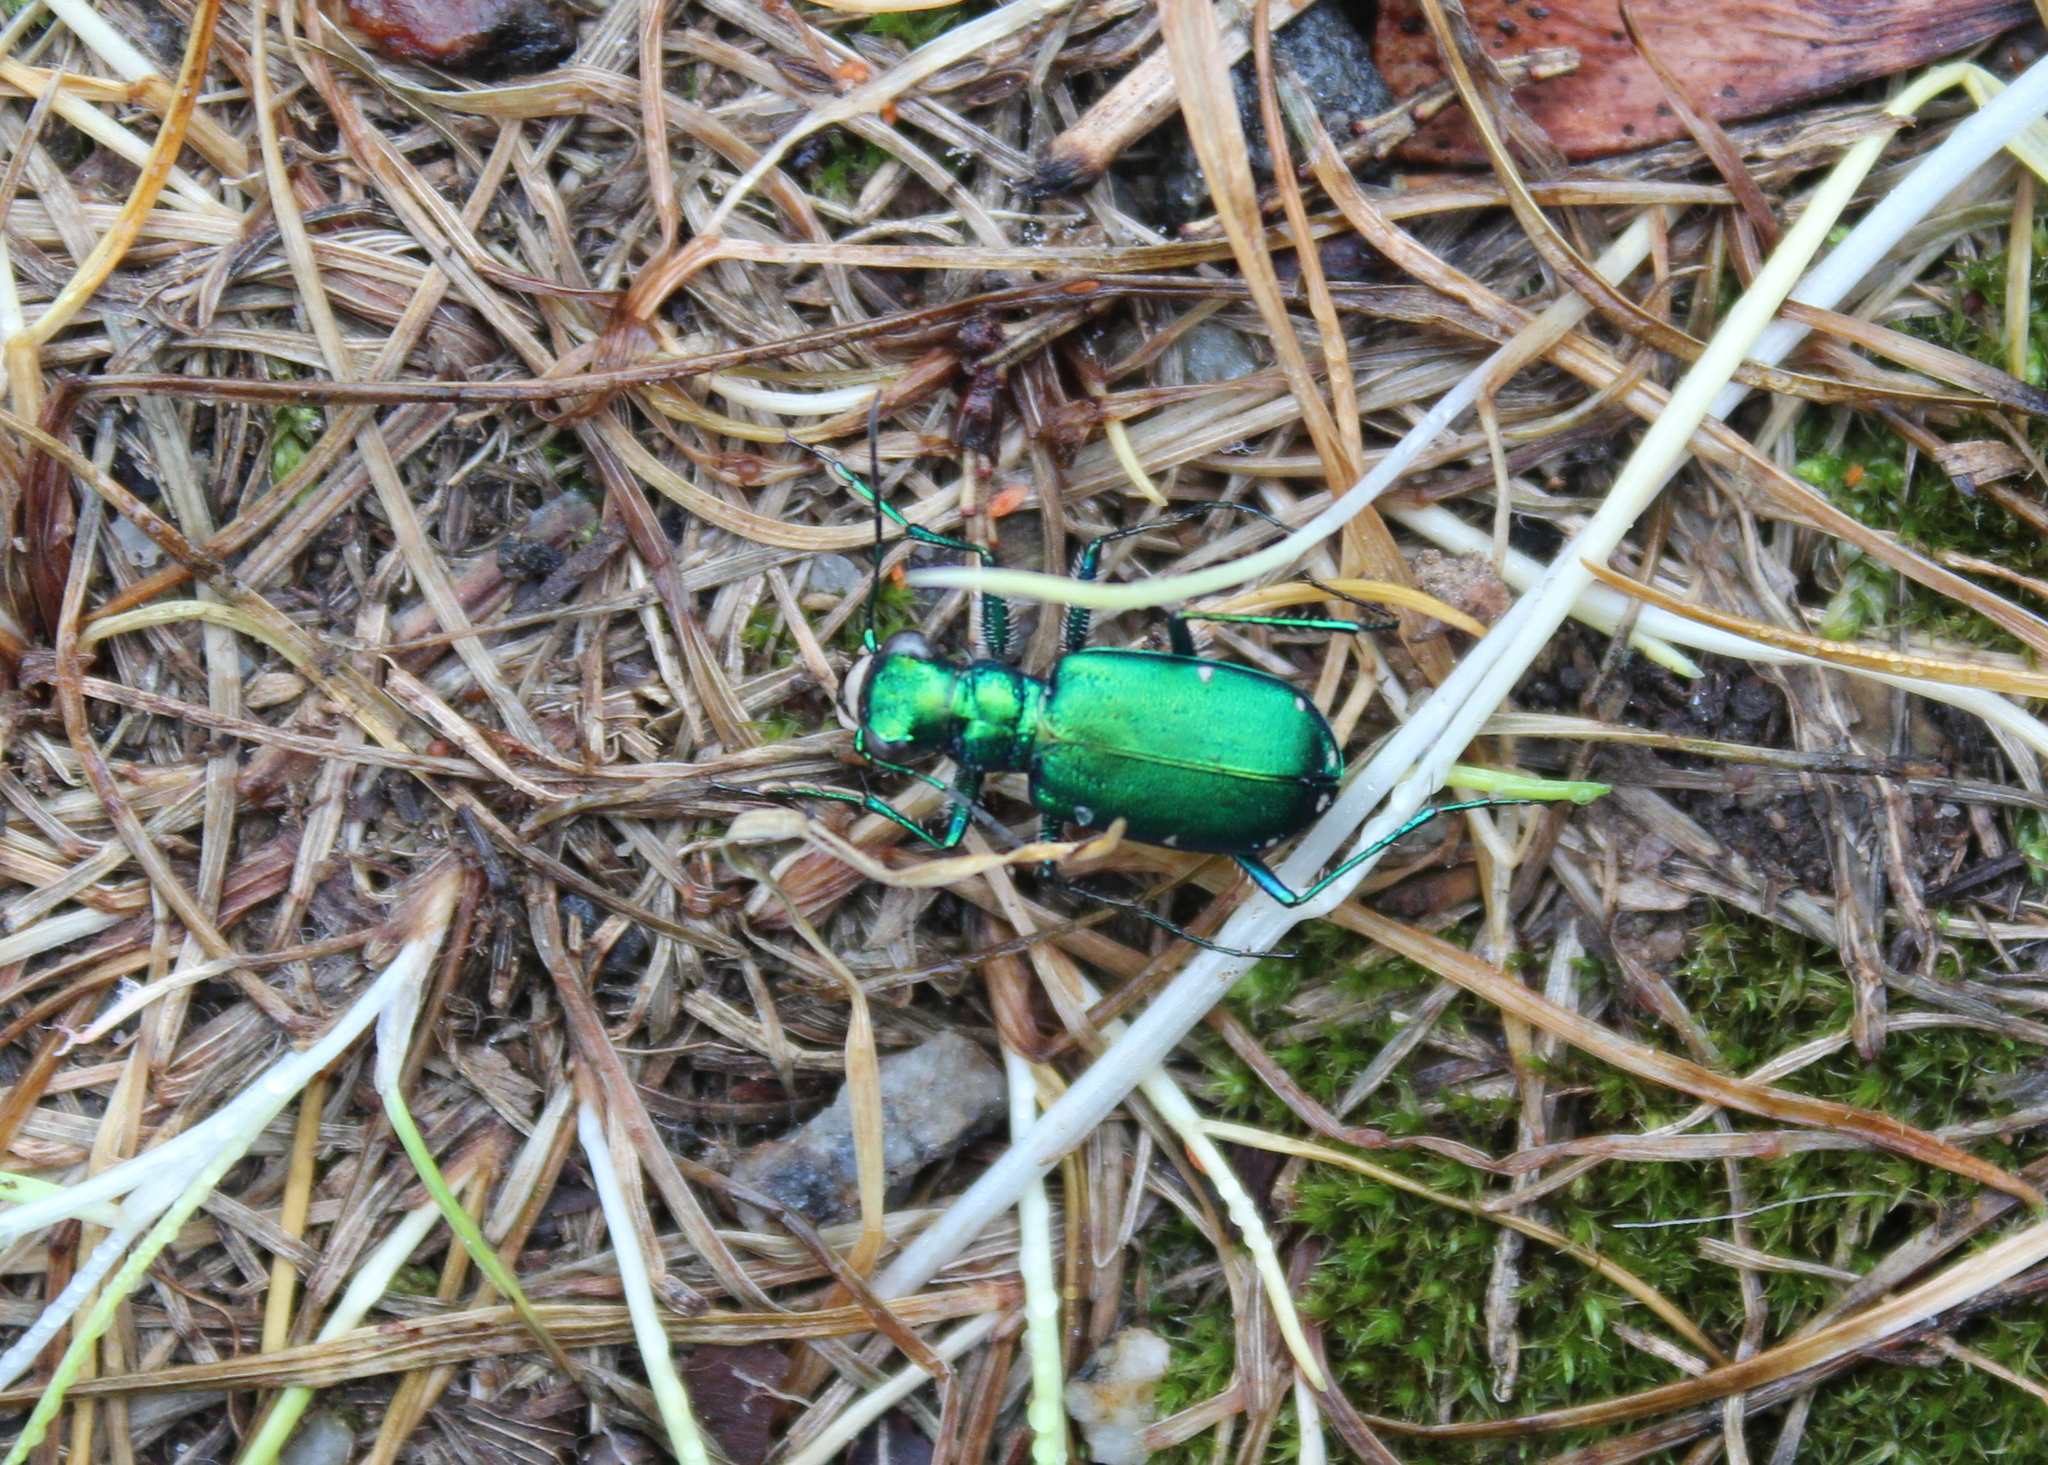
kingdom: Animalia
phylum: Arthropoda
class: Insecta
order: Coleoptera
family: Carabidae
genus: Cicindela
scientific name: Cicindela sexguttata
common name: Six-spotted tiger beetle
